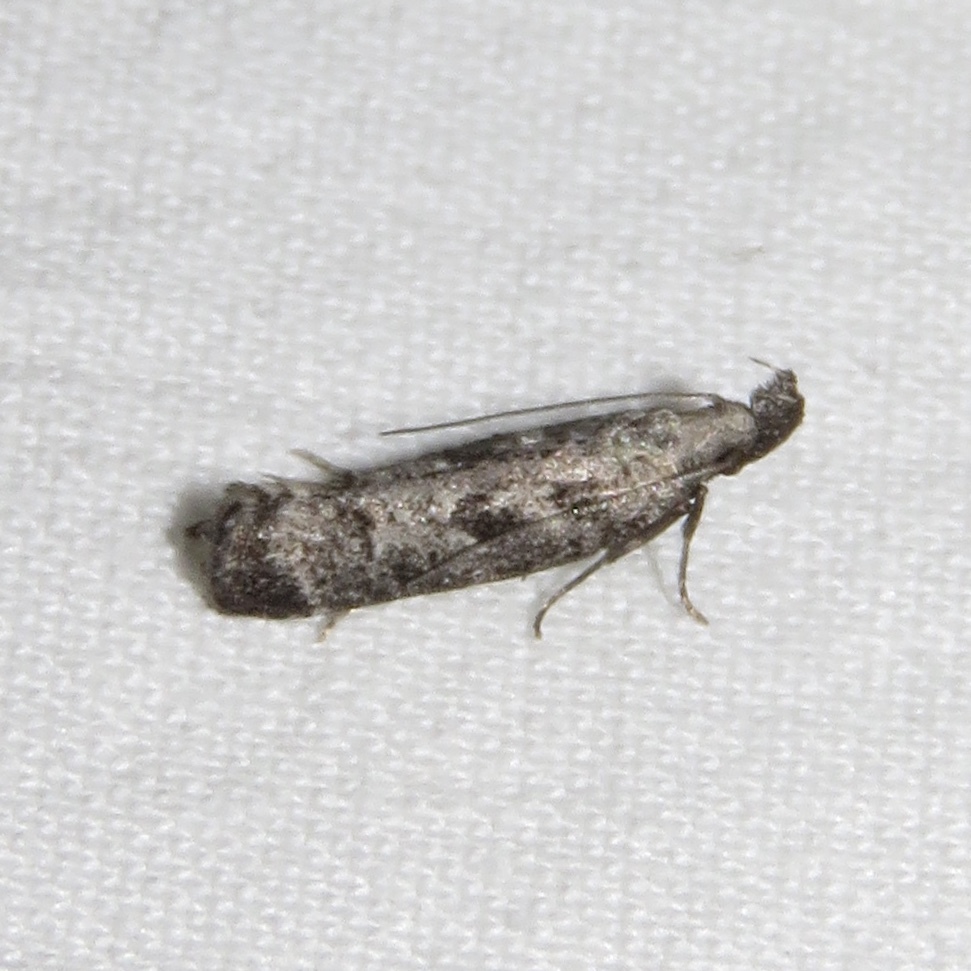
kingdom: Animalia
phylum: Arthropoda
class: Insecta
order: Lepidoptera
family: Gelechiidae
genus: Dichomeris
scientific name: Dichomeris inversella
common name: Inverse dichomeris moth
